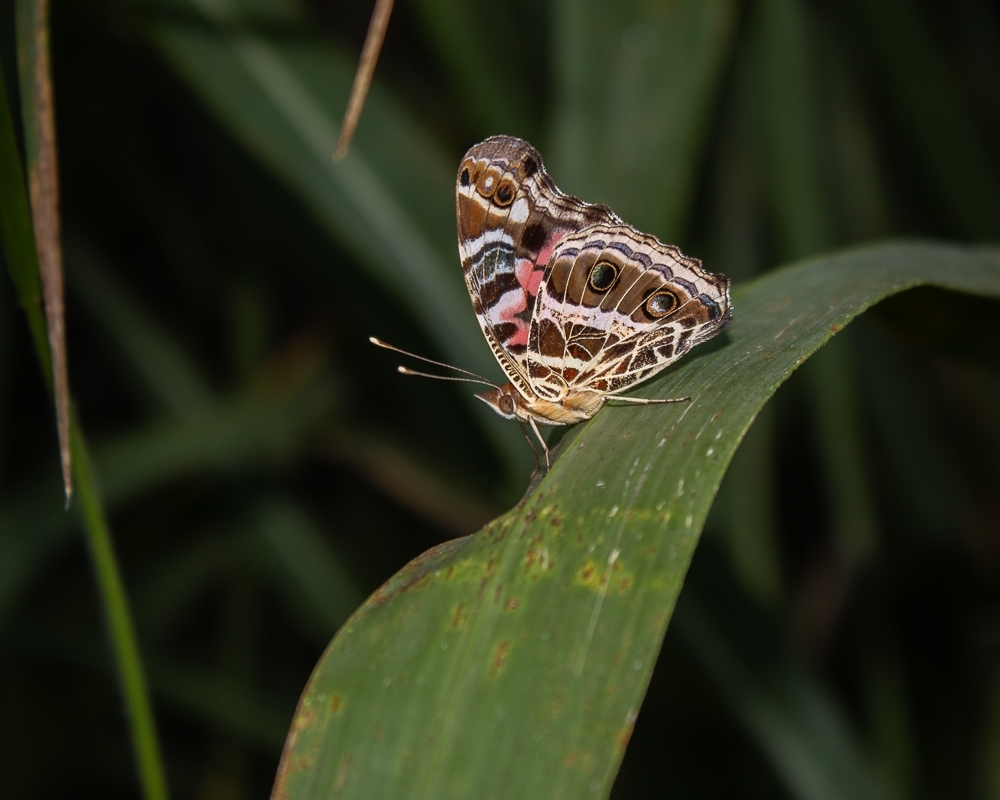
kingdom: Animalia
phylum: Arthropoda
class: Insecta
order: Lepidoptera
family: Nymphalidae
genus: Vanessa
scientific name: Vanessa myrinna
